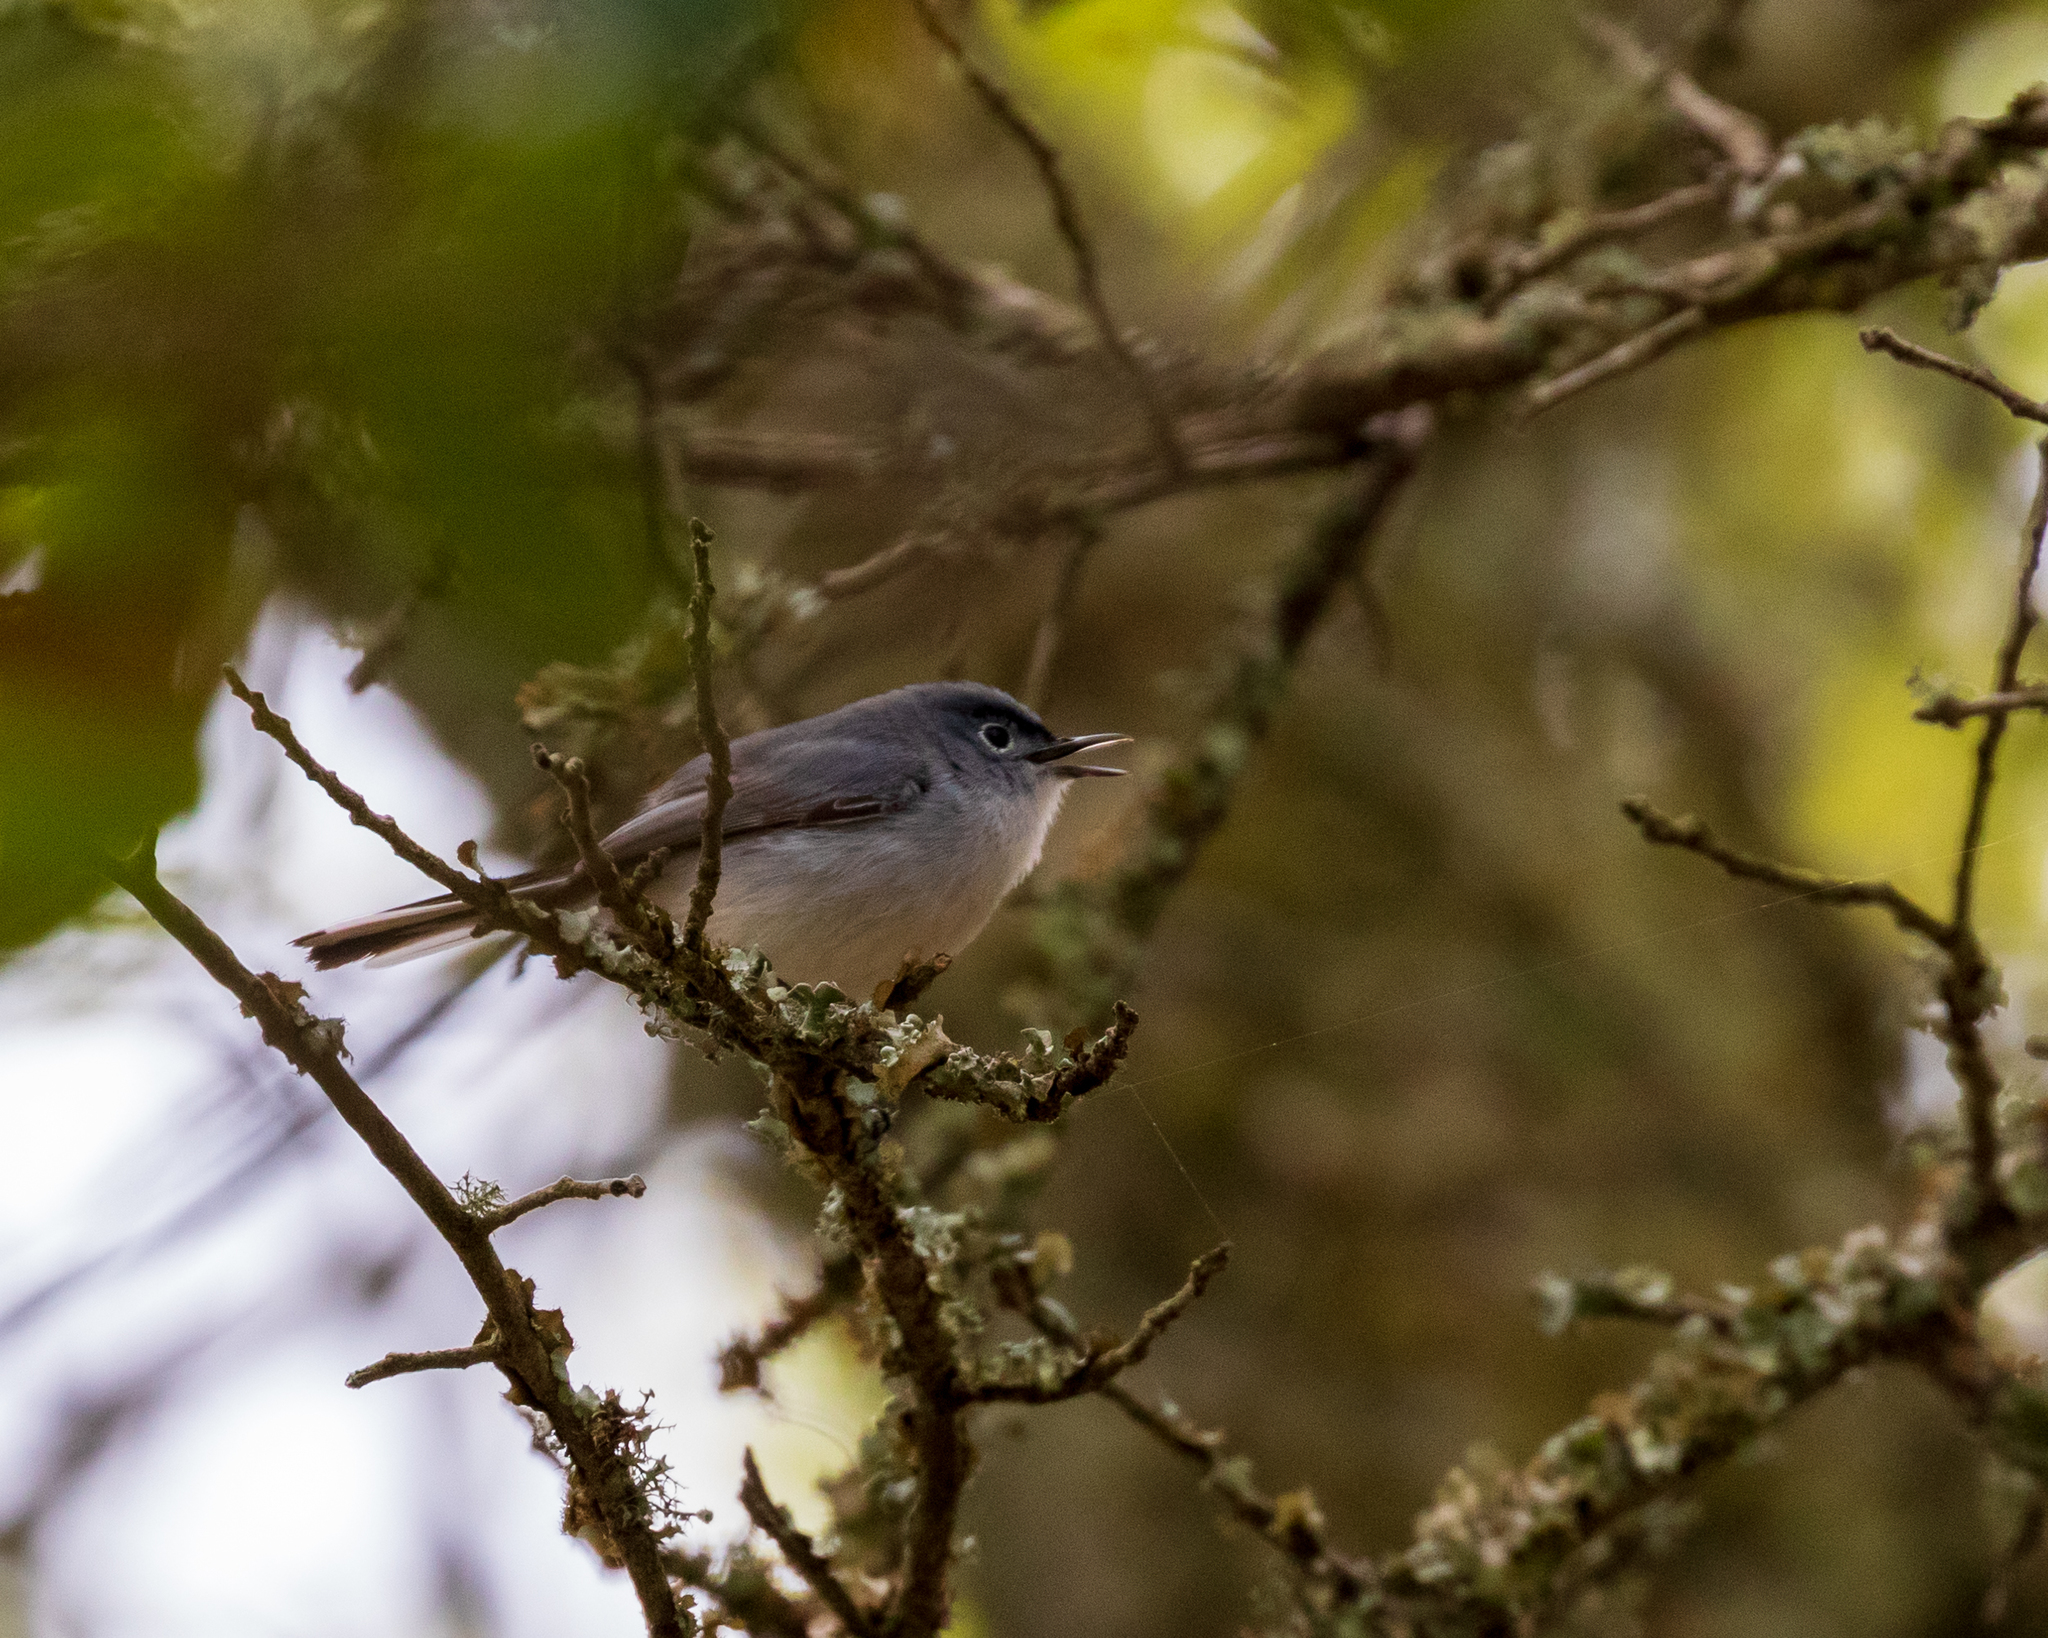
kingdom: Animalia
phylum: Chordata
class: Aves
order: Passeriformes
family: Polioptilidae
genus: Polioptila
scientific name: Polioptila caerulea
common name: Blue-gray gnatcatcher
